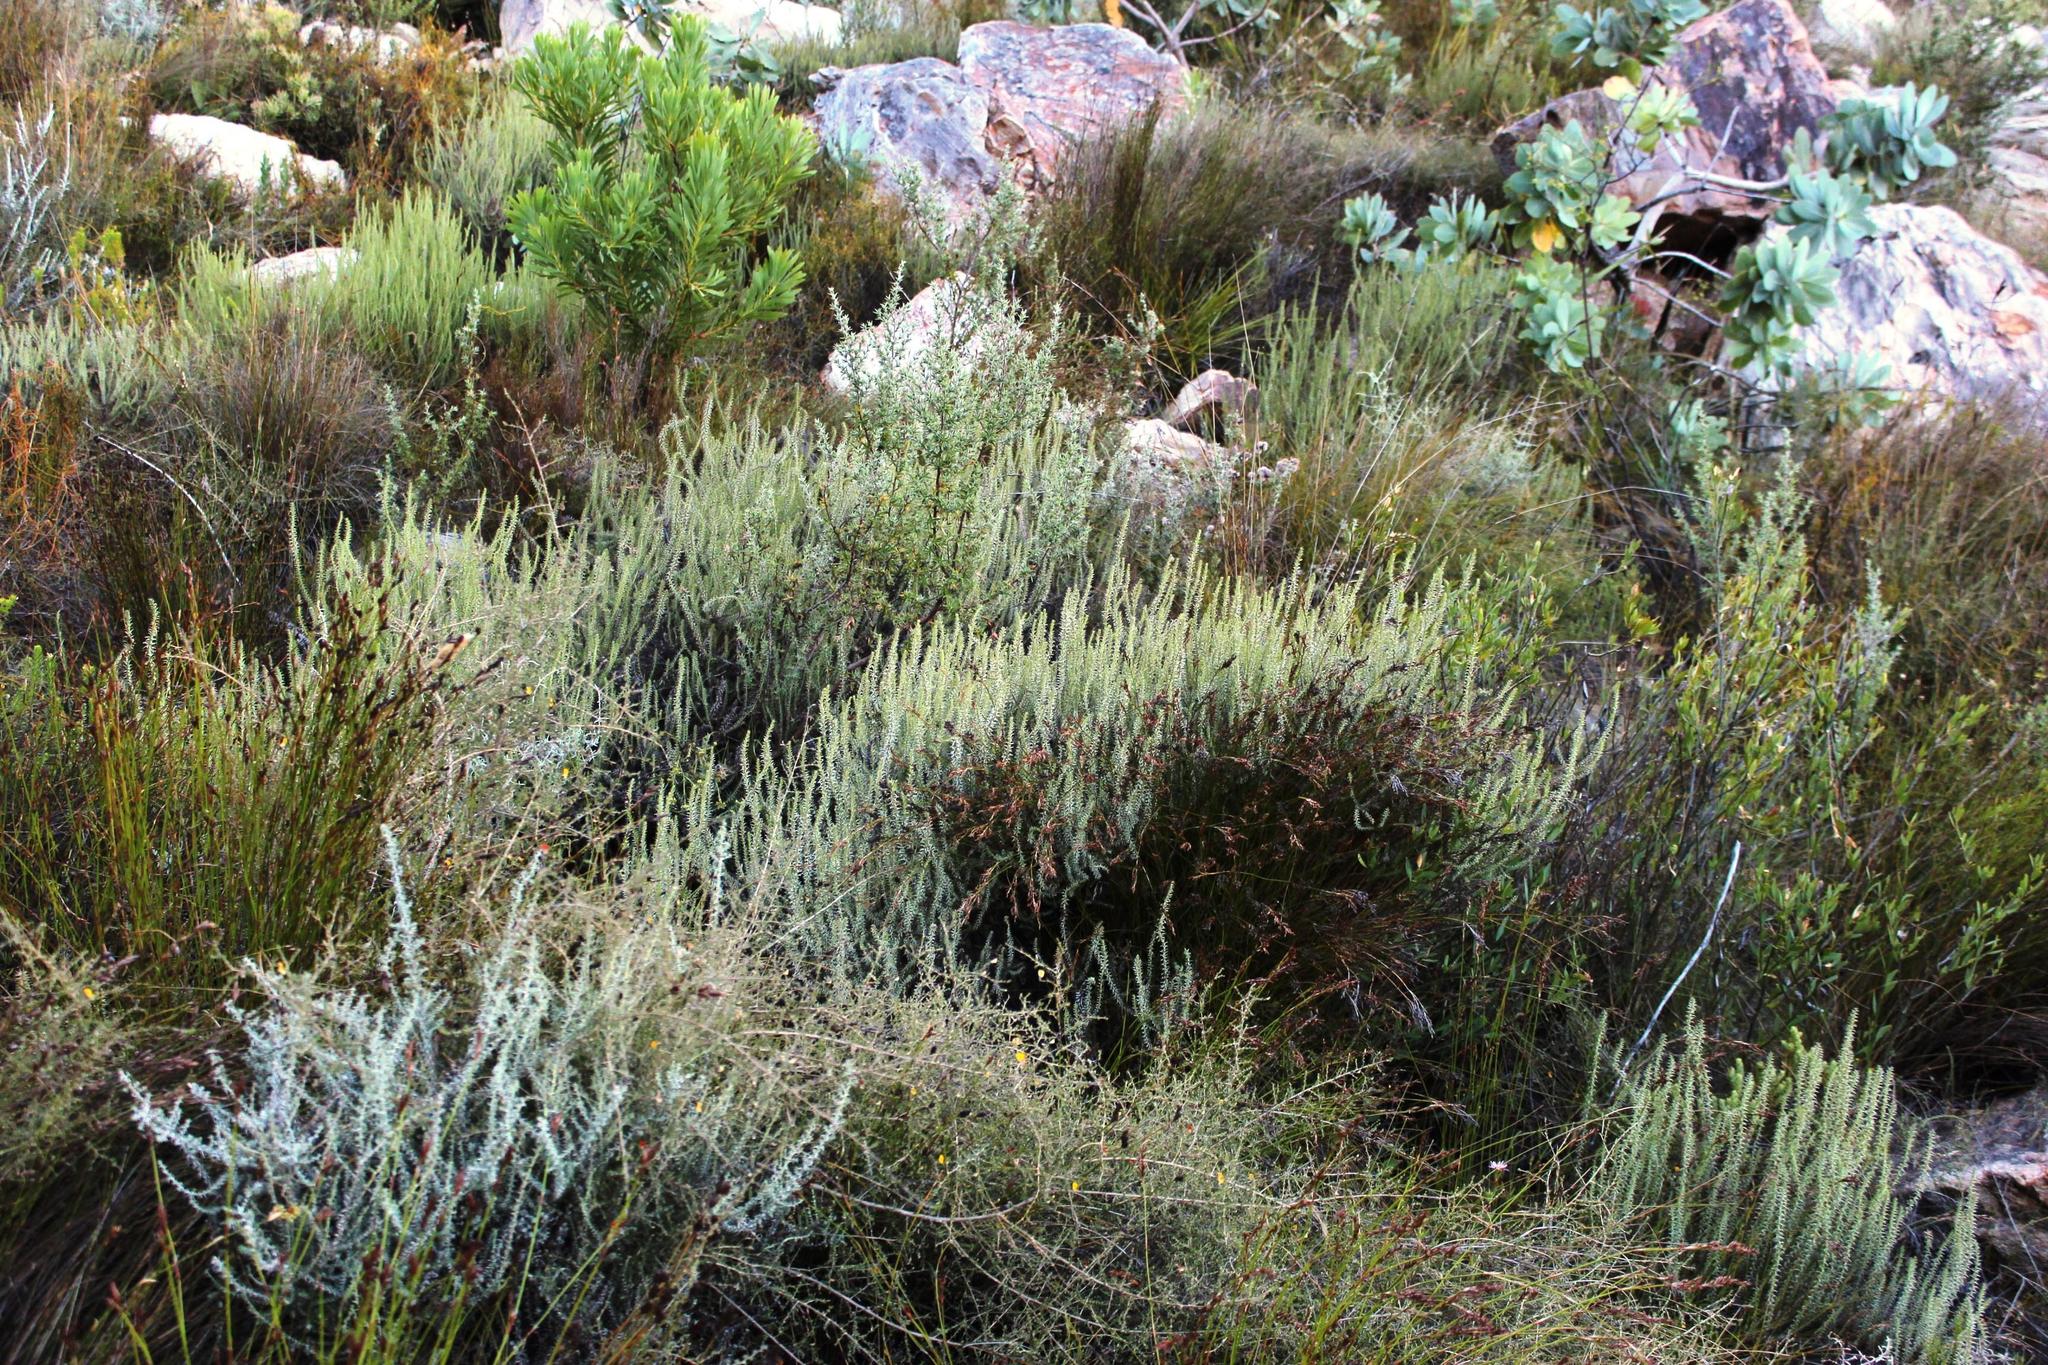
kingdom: Plantae
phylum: Tracheophyta
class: Magnoliopsida
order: Asterales
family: Asteraceae
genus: Myrovernix
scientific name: Myrovernix glandulosus
